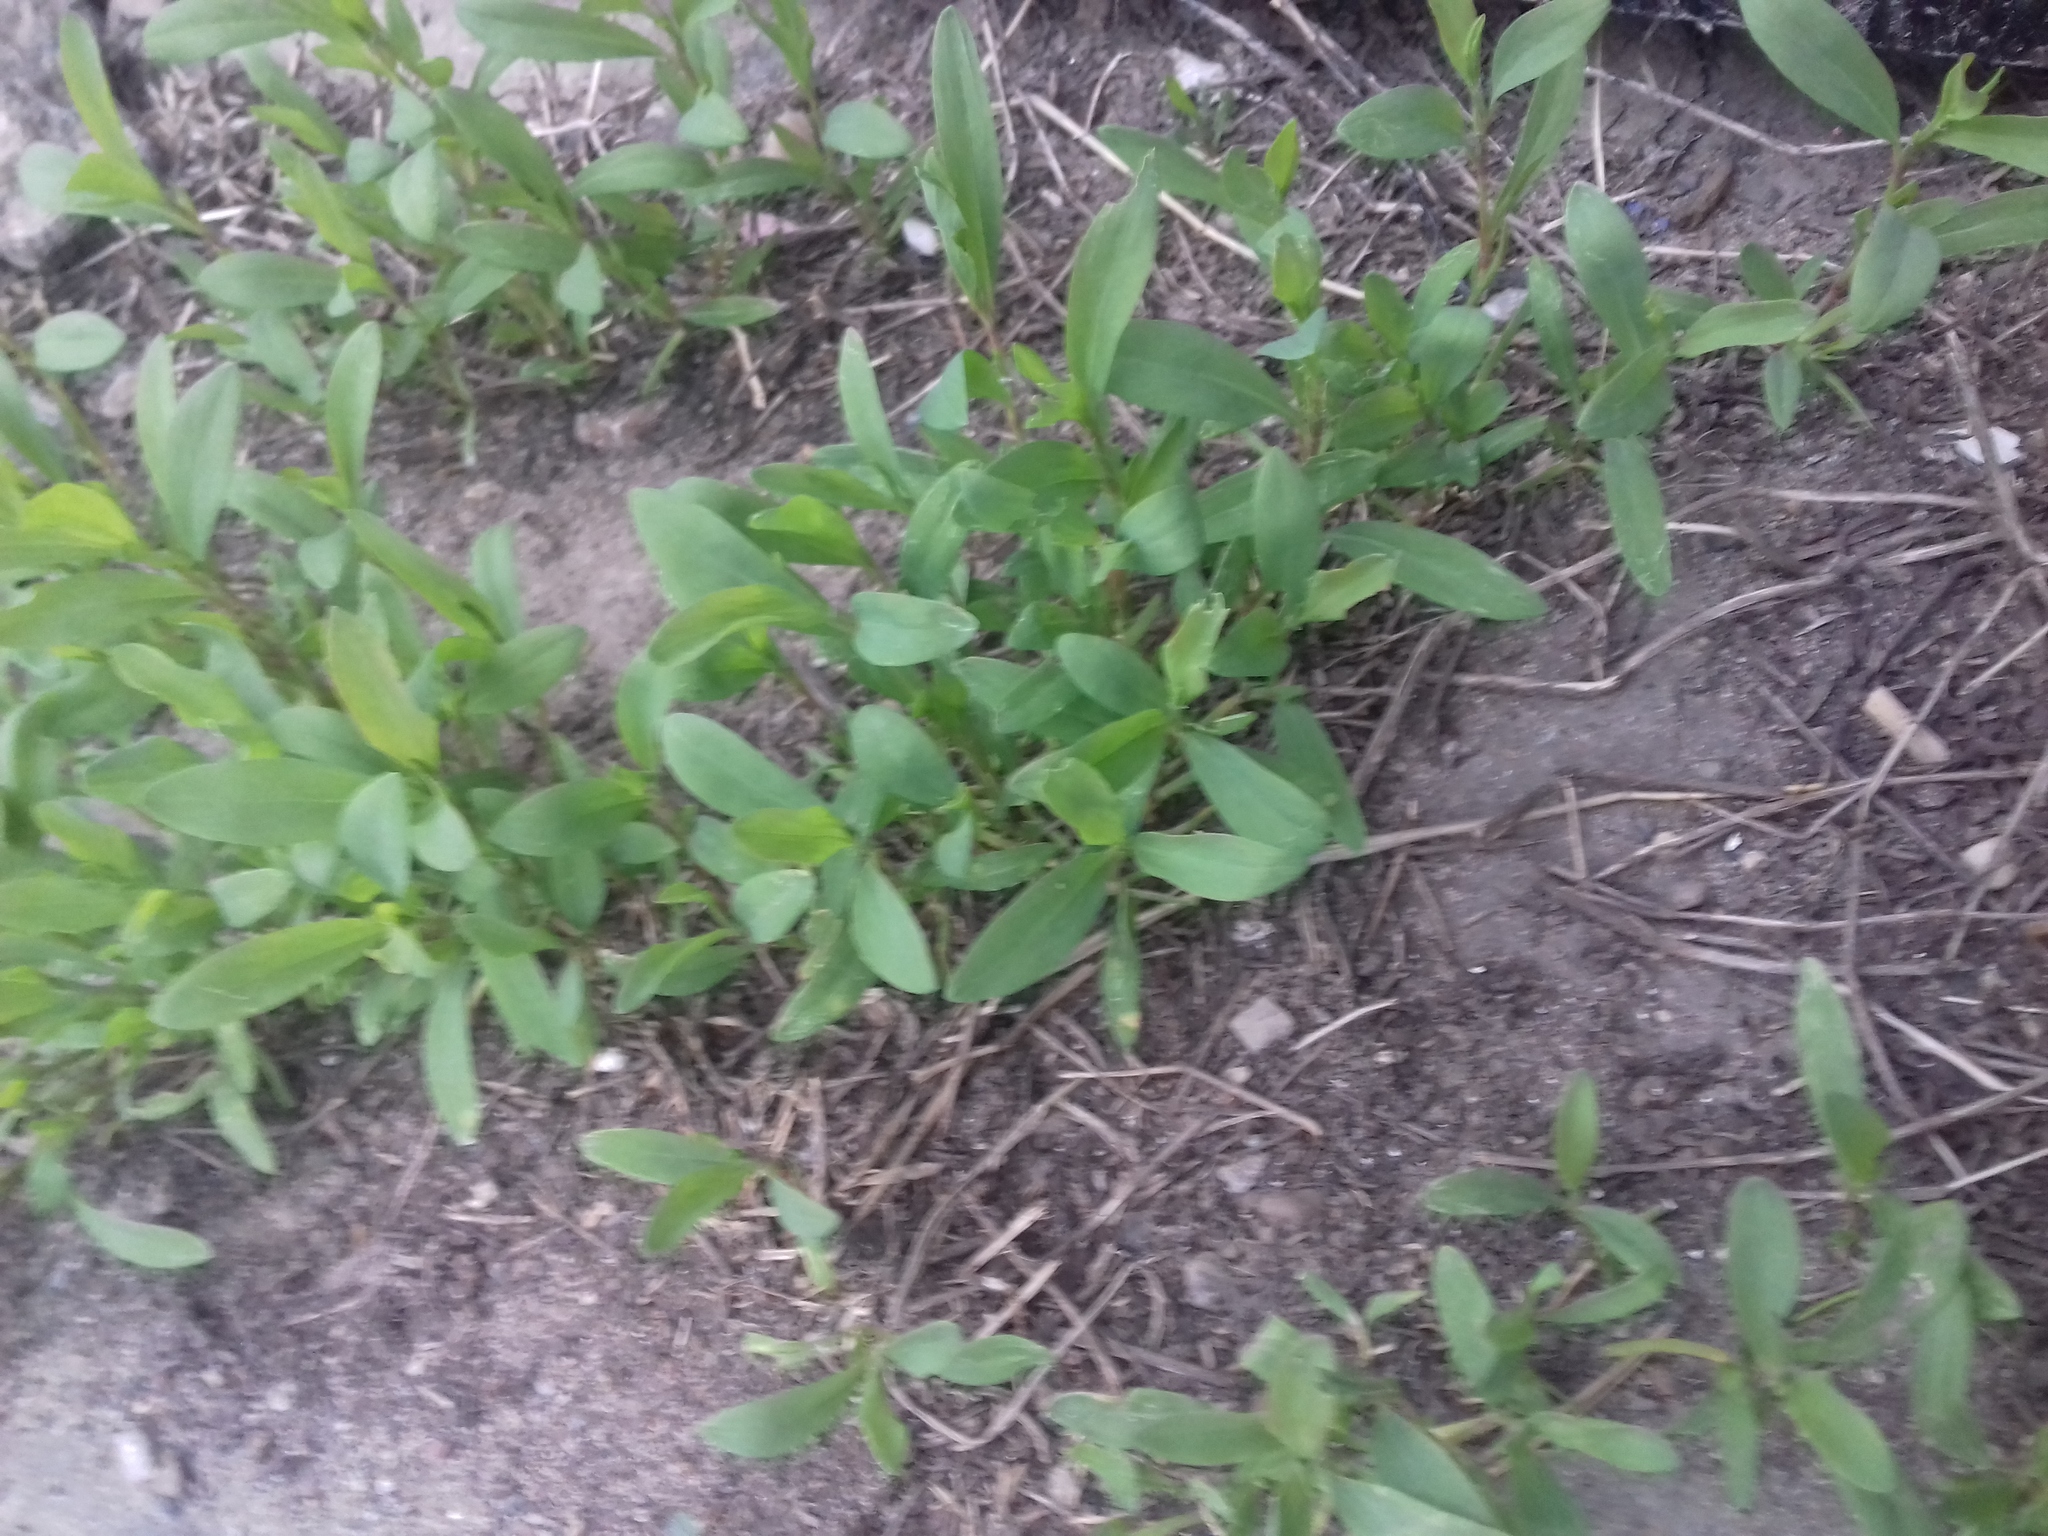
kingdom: Plantae
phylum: Tracheophyta
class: Magnoliopsida
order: Caryophyllales
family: Polygonaceae
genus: Polygonum
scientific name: Polygonum
